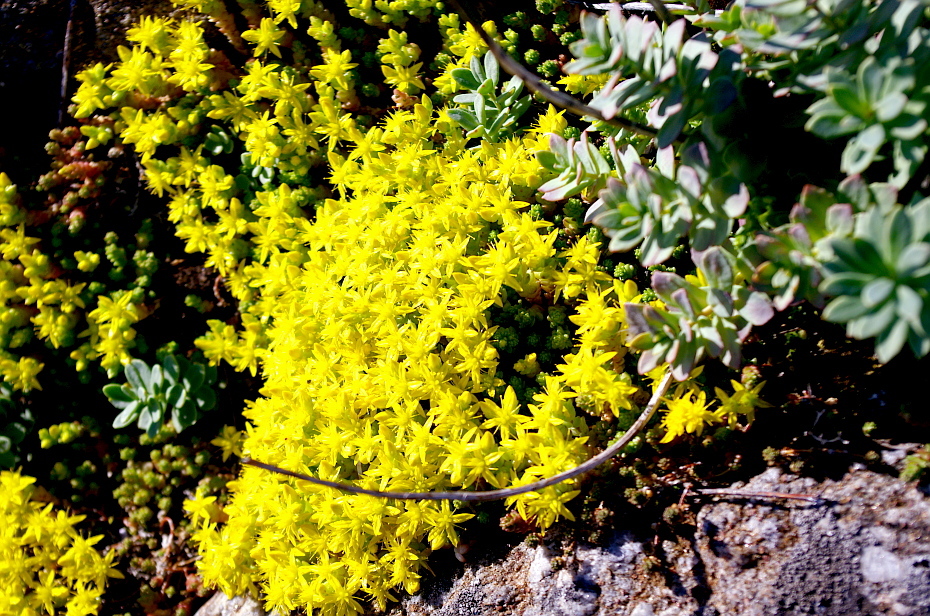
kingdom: Plantae
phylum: Tracheophyta
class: Magnoliopsida
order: Saxifragales
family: Crassulaceae
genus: Sedum
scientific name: Sedum acre
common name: Biting stonecrop
